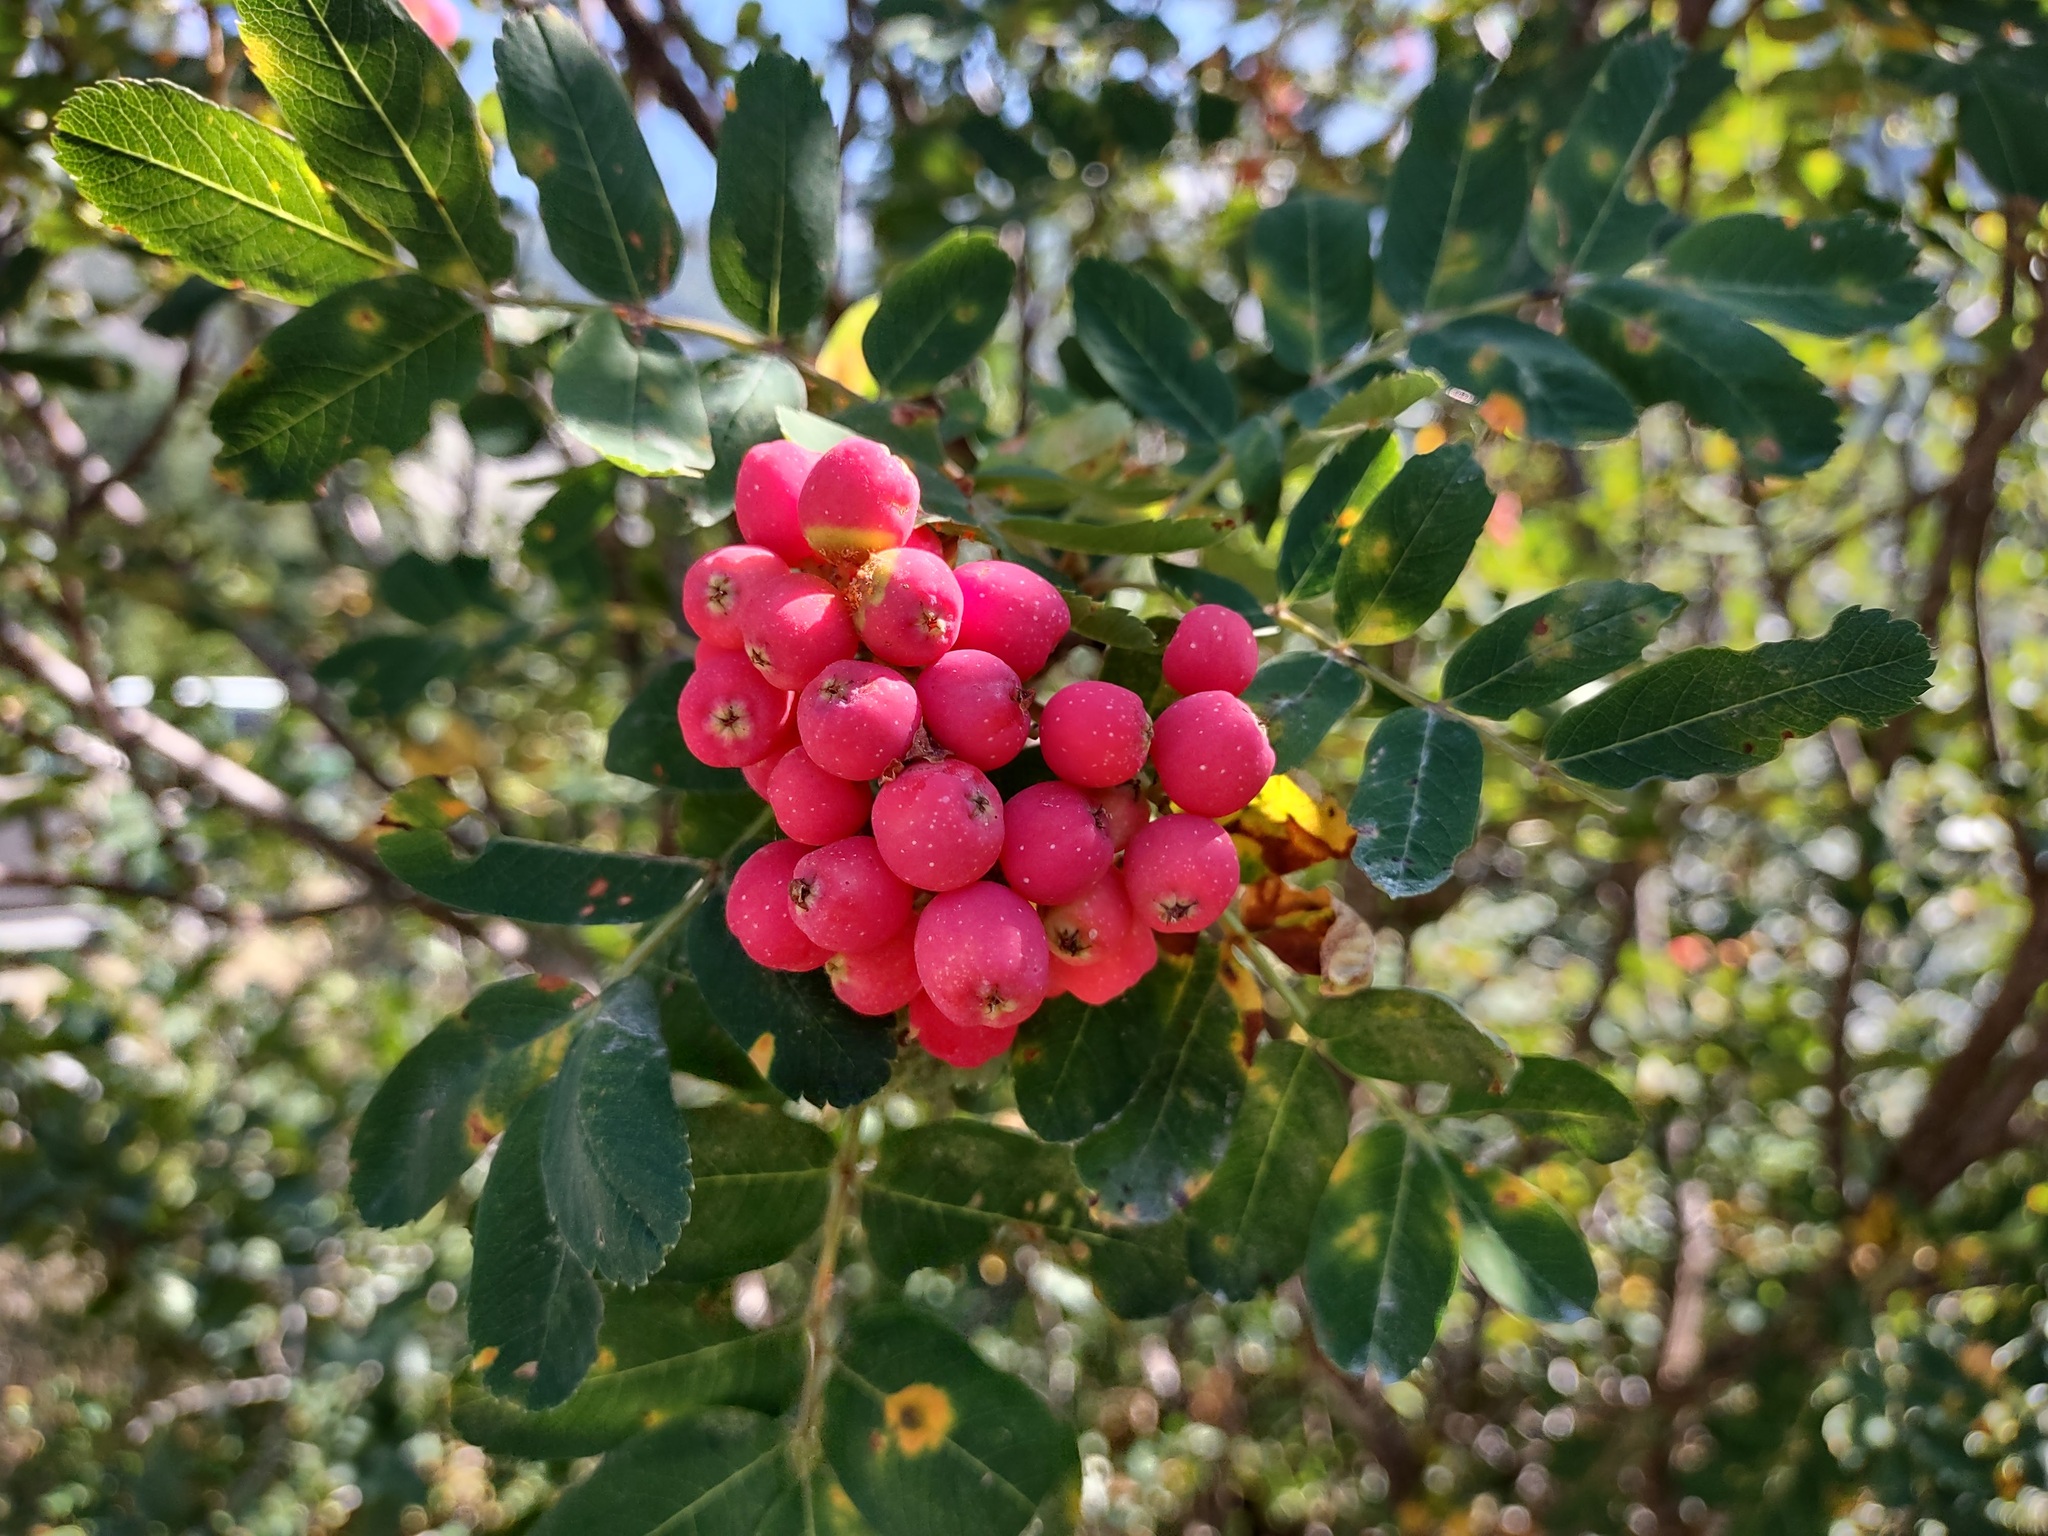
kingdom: Plantae
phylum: Tracheophyta
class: Magnoliopsida
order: Rosales
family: Rosaceae
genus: Sorbus
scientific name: Sorbus sitchensis
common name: Sitka mountain-ash
